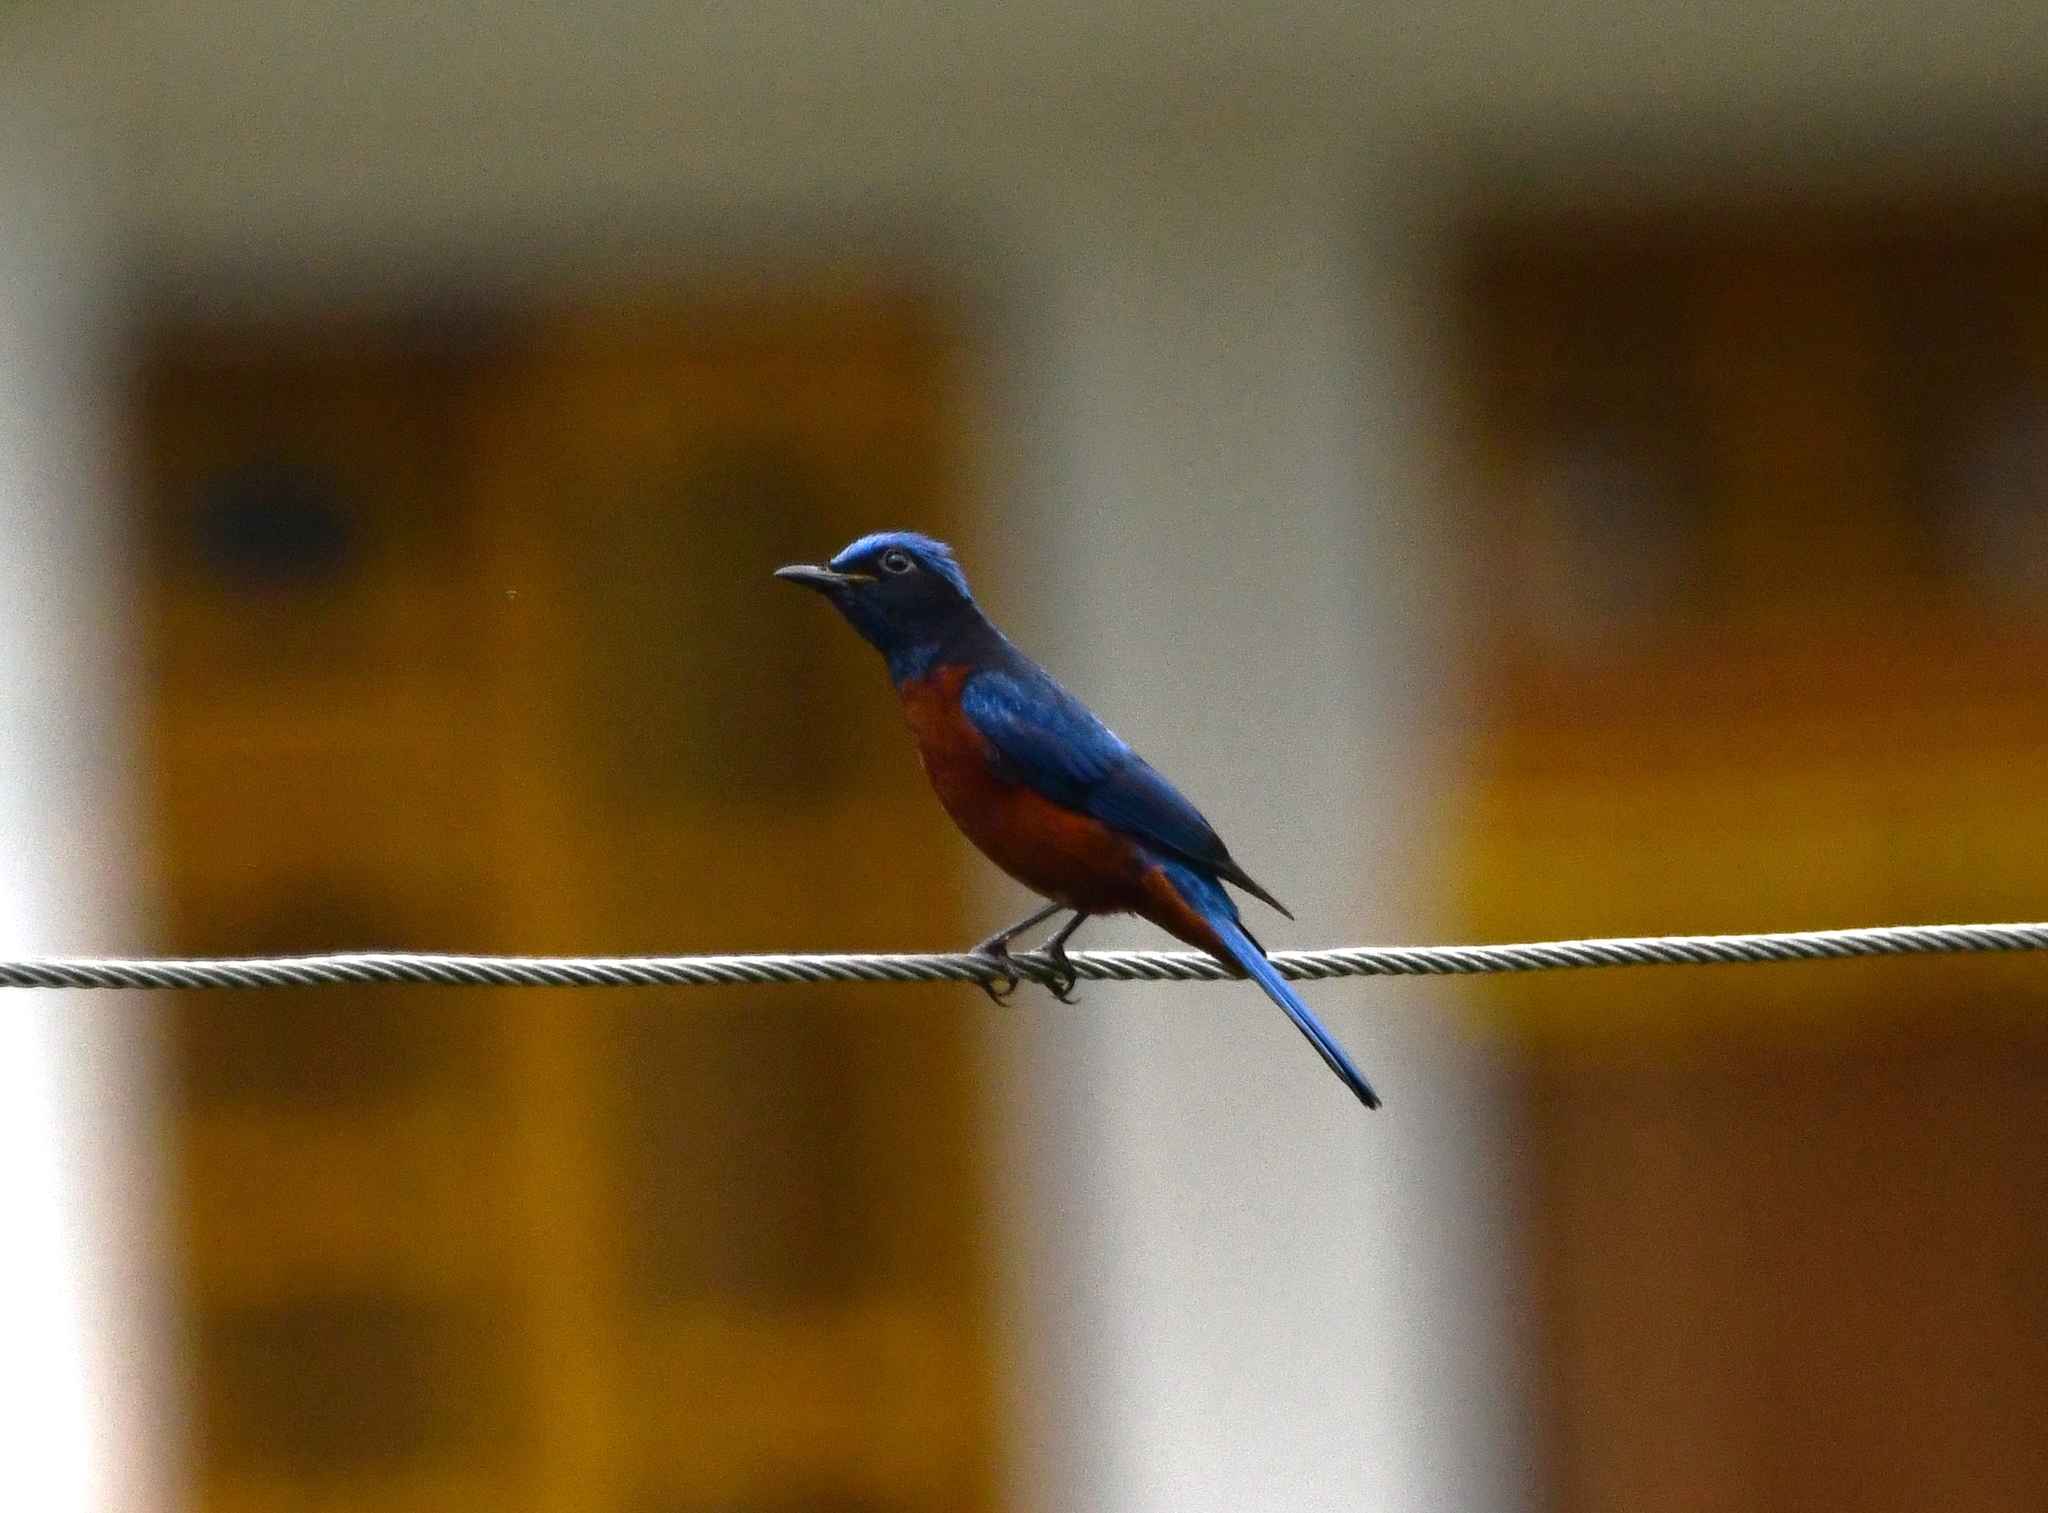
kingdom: Animalia
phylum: Chordata
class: Aves
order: Passeriformes
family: Muscicapidae
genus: Monticola
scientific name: Monticola rufiventris
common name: Chestnut-bellied rock thrush
